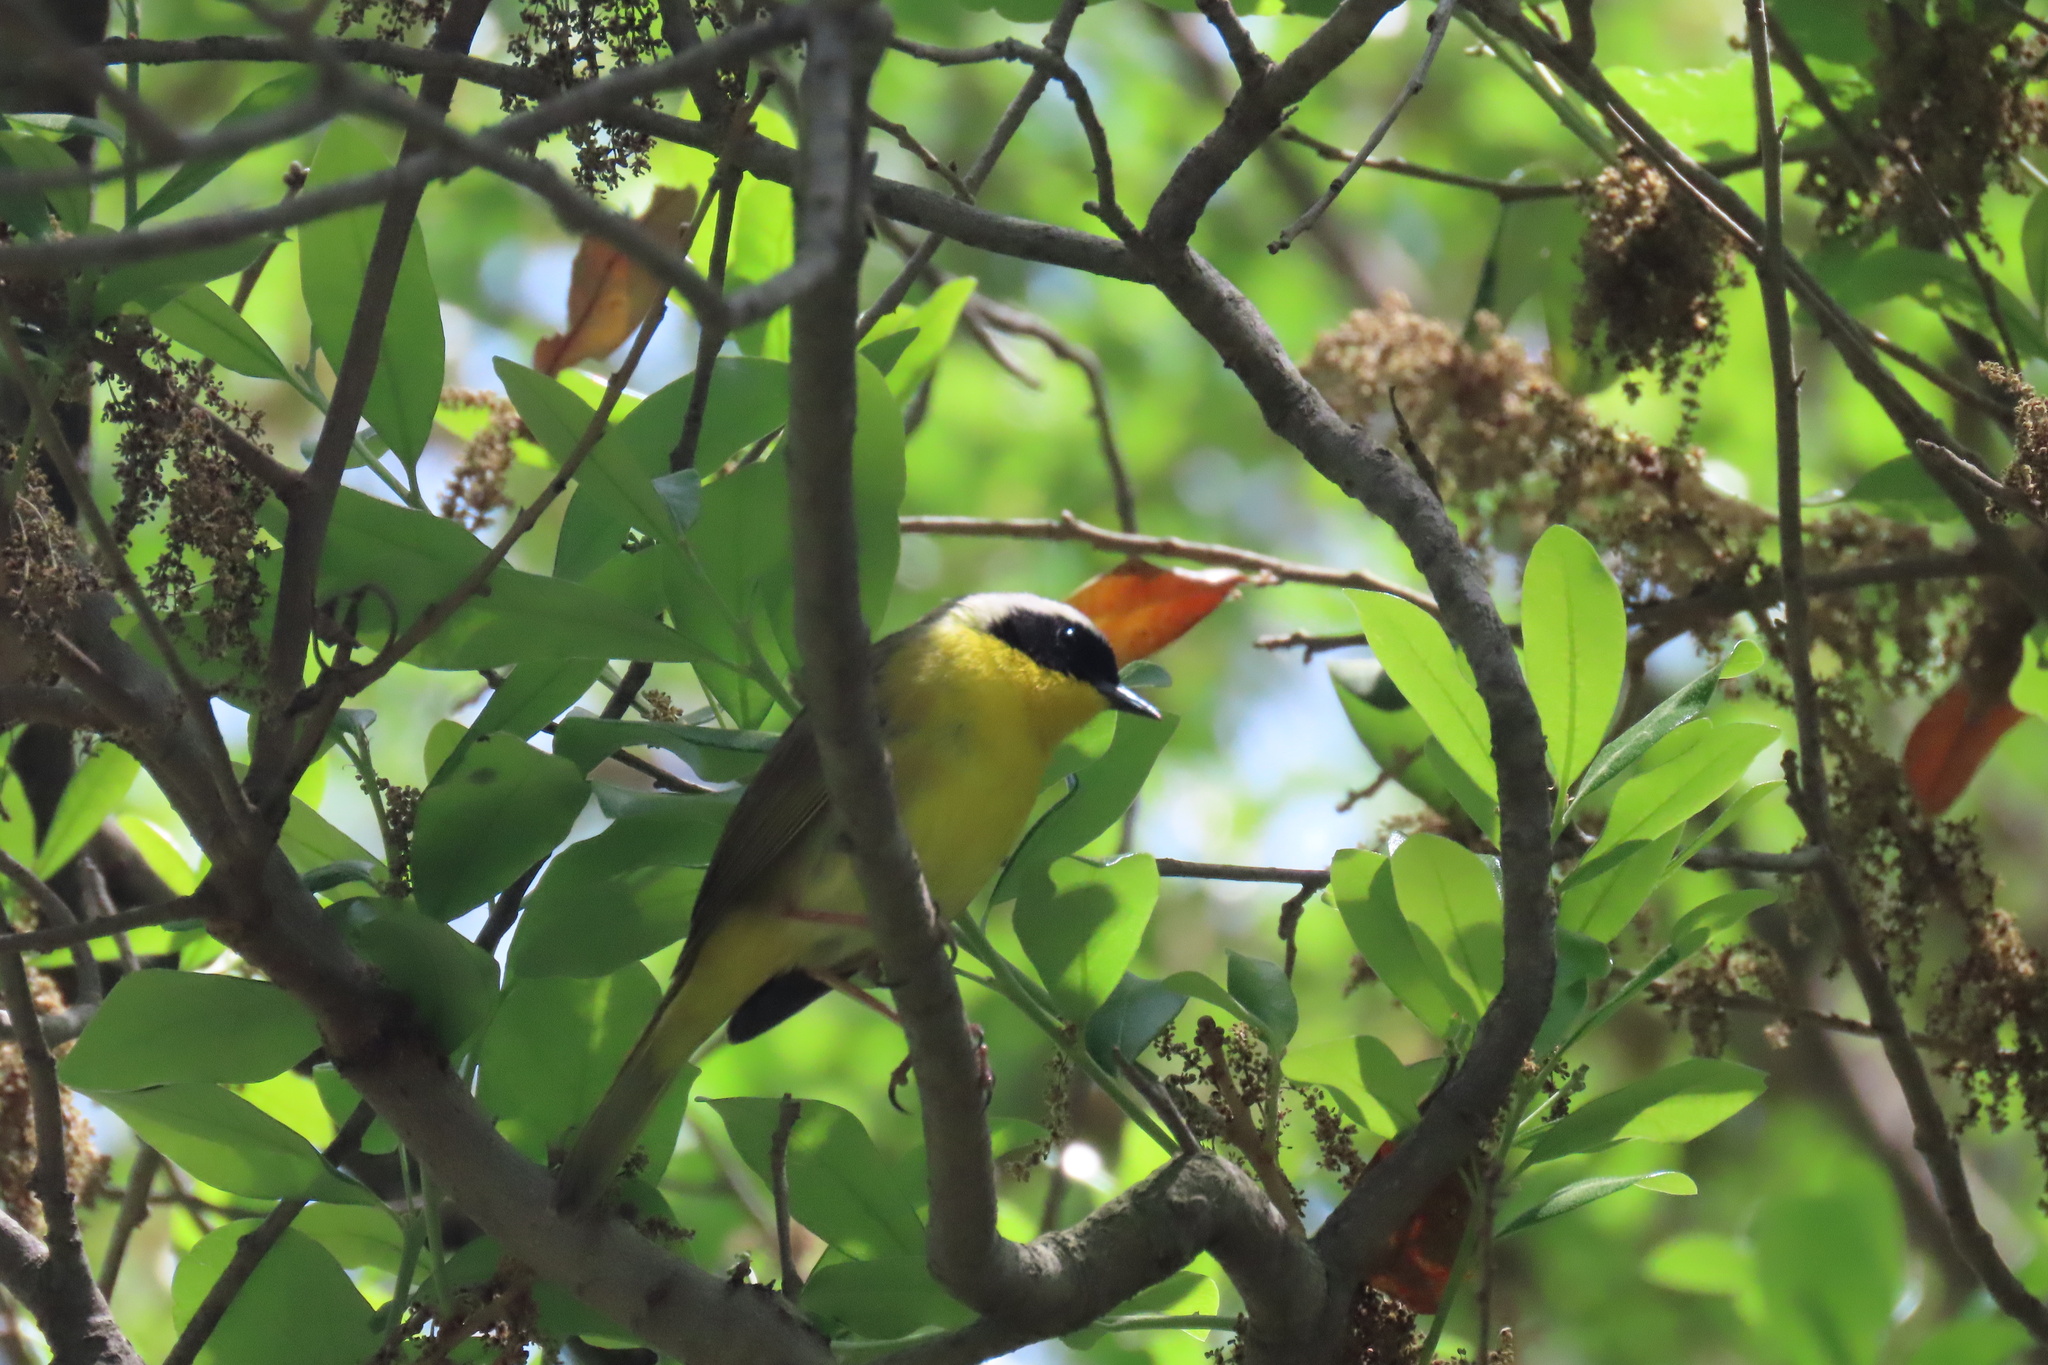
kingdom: Animalia
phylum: Chordata
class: Aves
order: Passeriformes
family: Parulidae
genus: Geothlypis
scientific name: Geothlypis trichas
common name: Common yellowthroat
